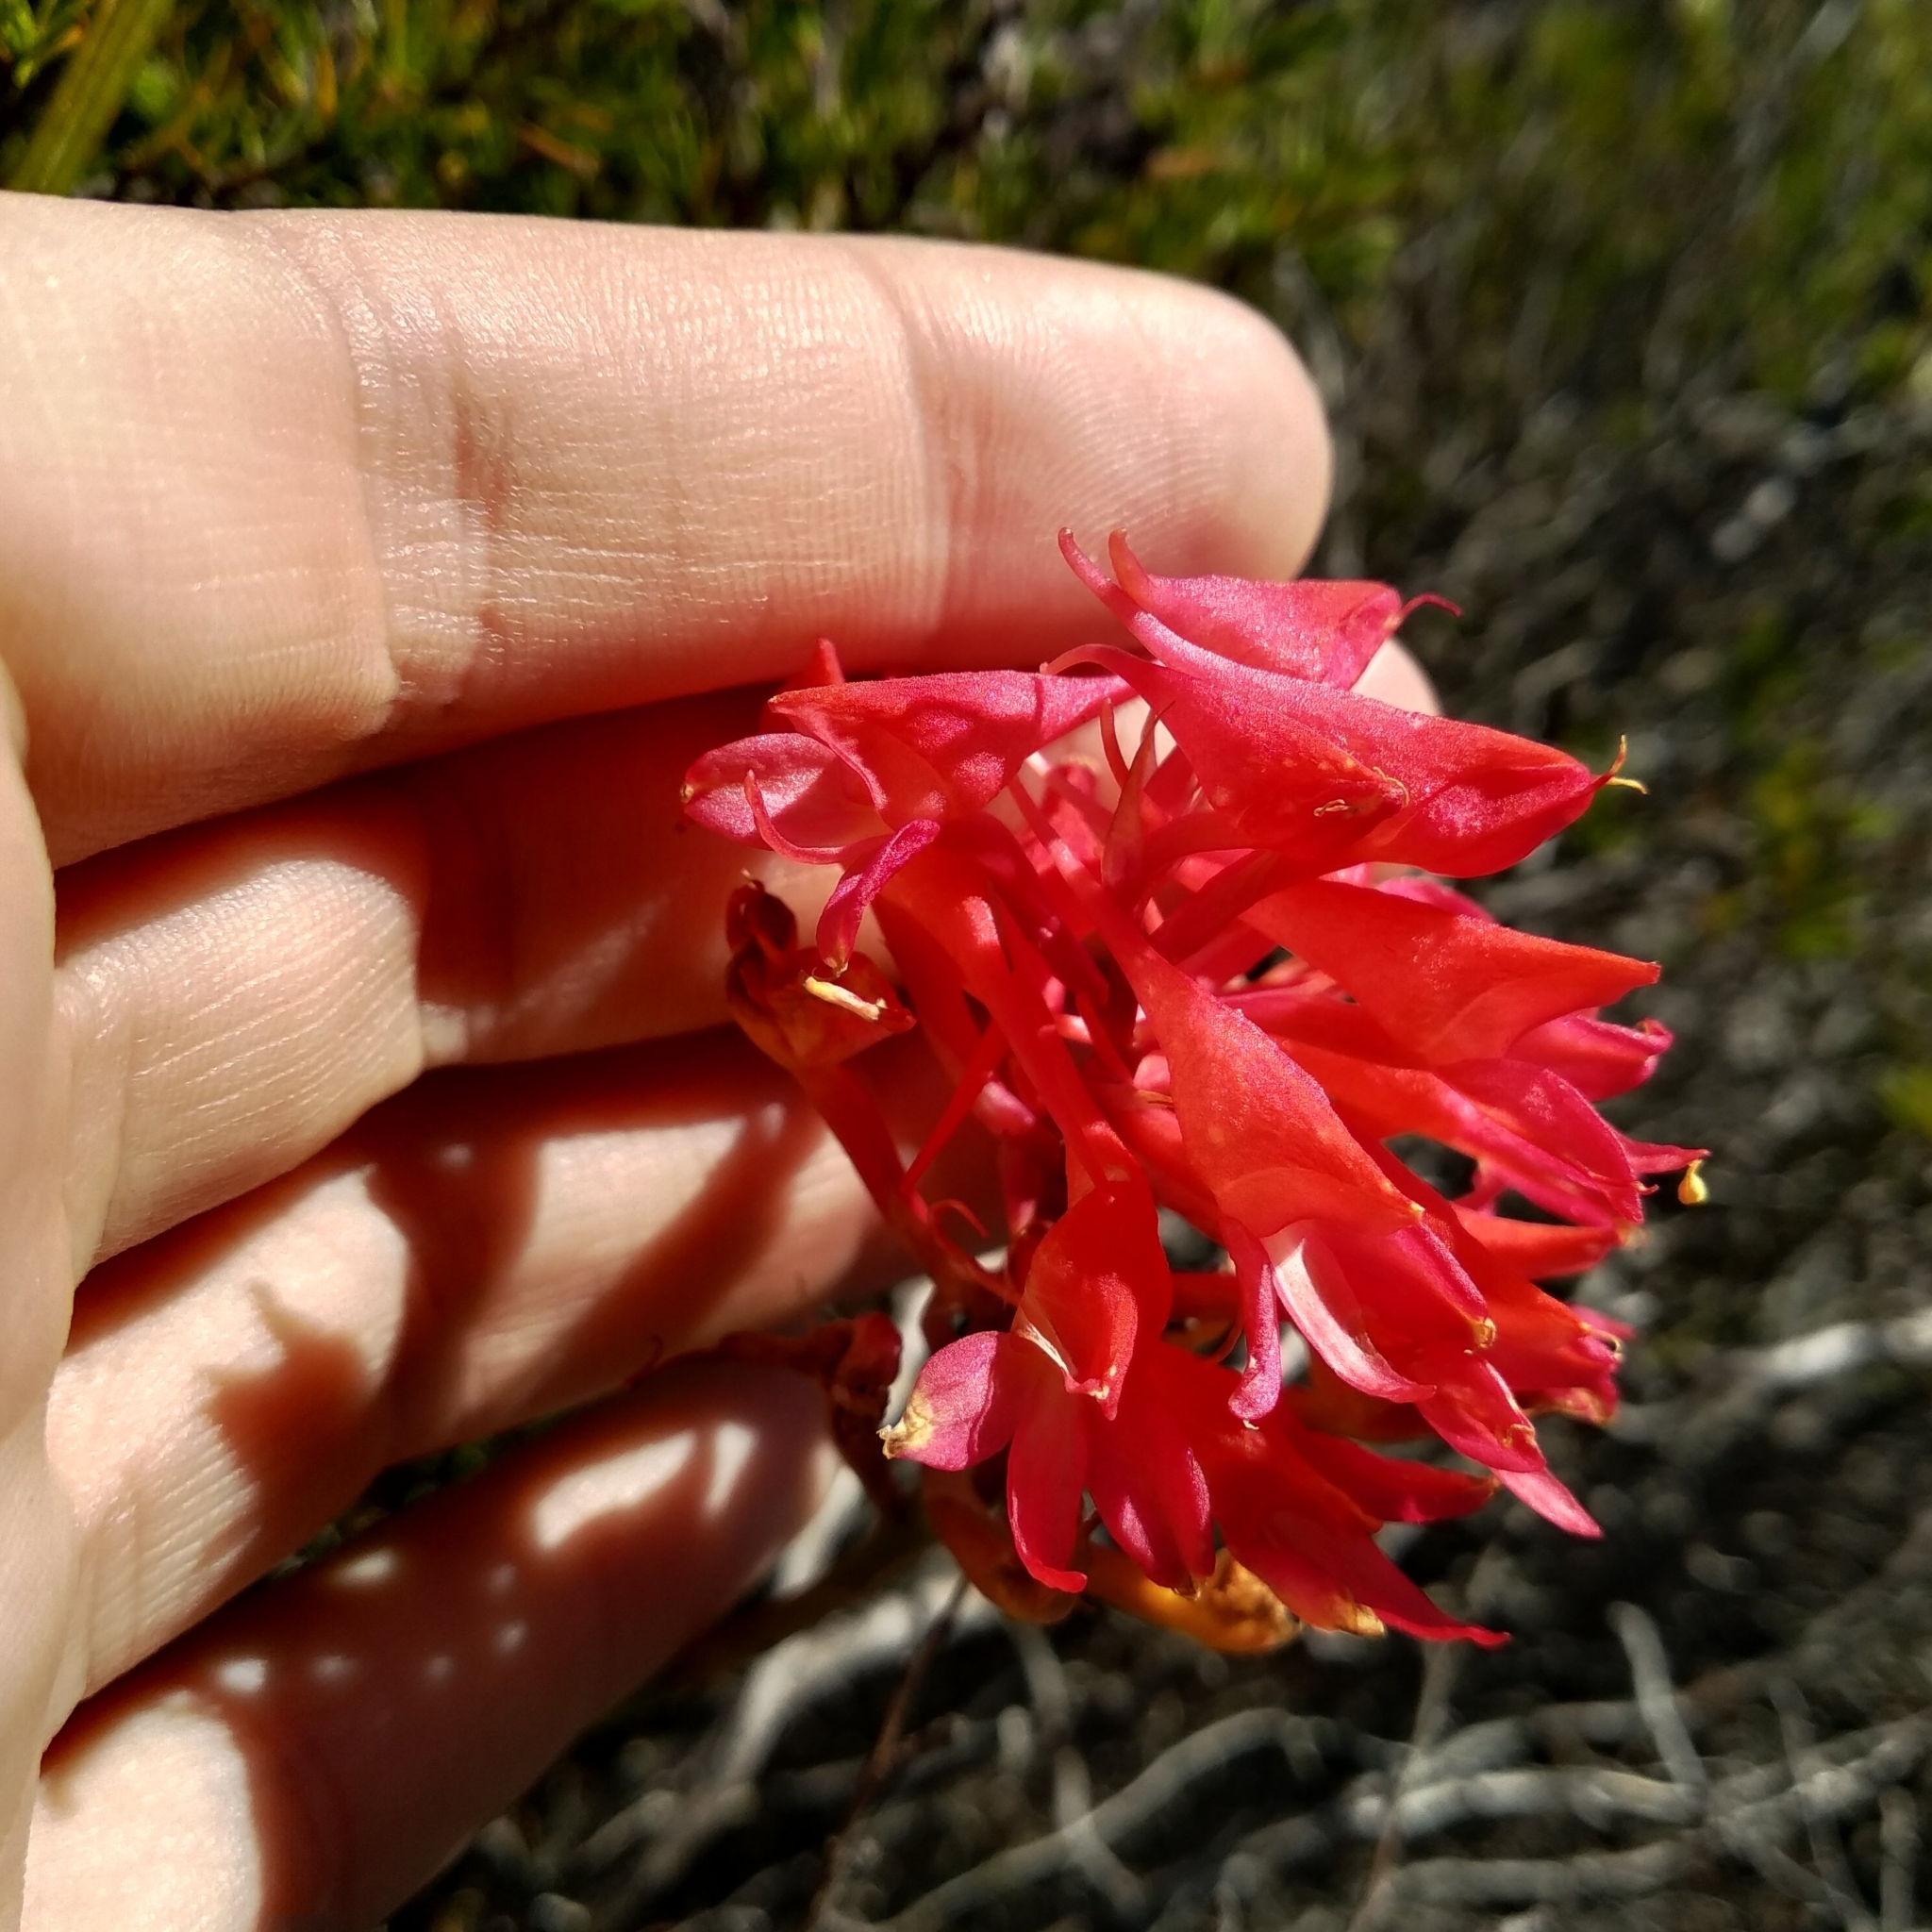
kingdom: Plantae
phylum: Tracheophyta
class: Liliopsida
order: Asparagales
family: Orchidaceae
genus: Disa
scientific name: Disa ferruginea
